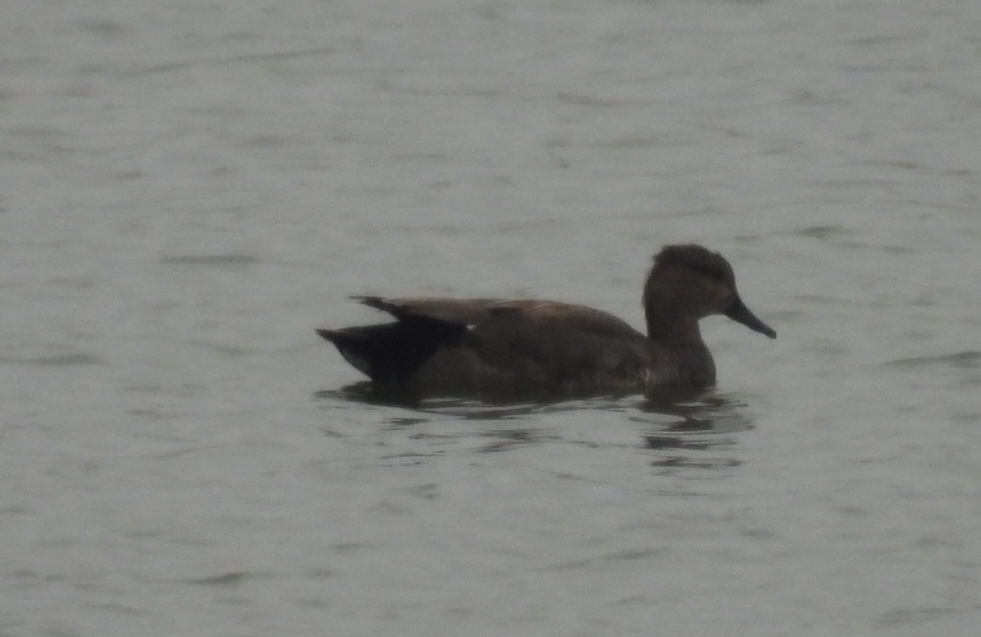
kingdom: Animalia
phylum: Chordata
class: Aves
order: Anseriformes
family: Anatidae
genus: Mareca
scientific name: Mareca strepera
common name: Gadwall
